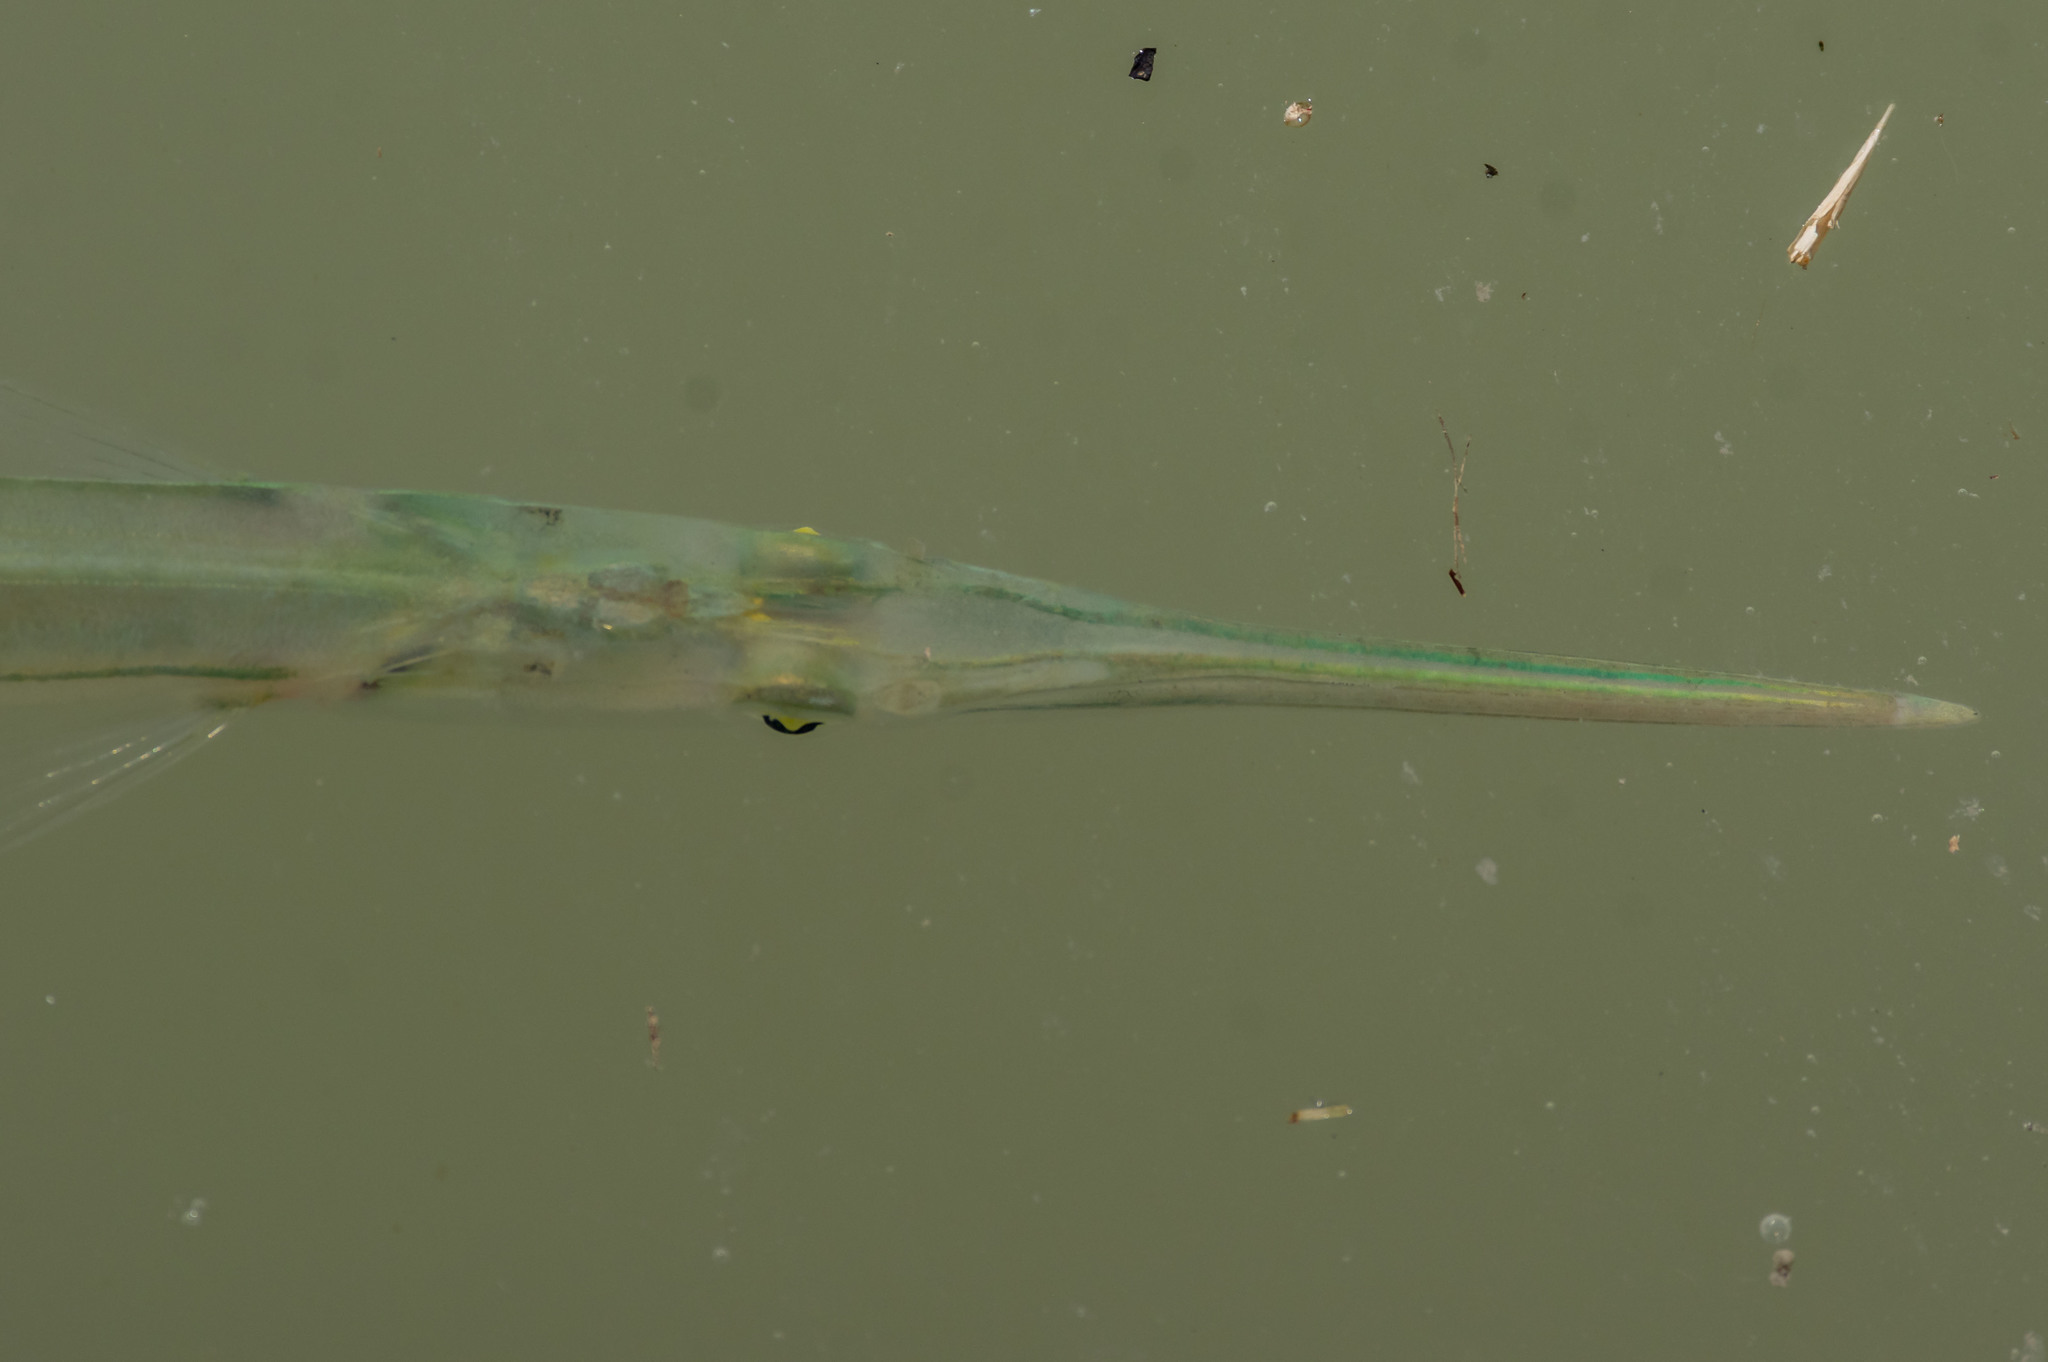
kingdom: Animalia
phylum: Chordata
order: Beloniformes
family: Belonidae
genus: Strongylura
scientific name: Strongylura marina
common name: Atlantic needlefish
